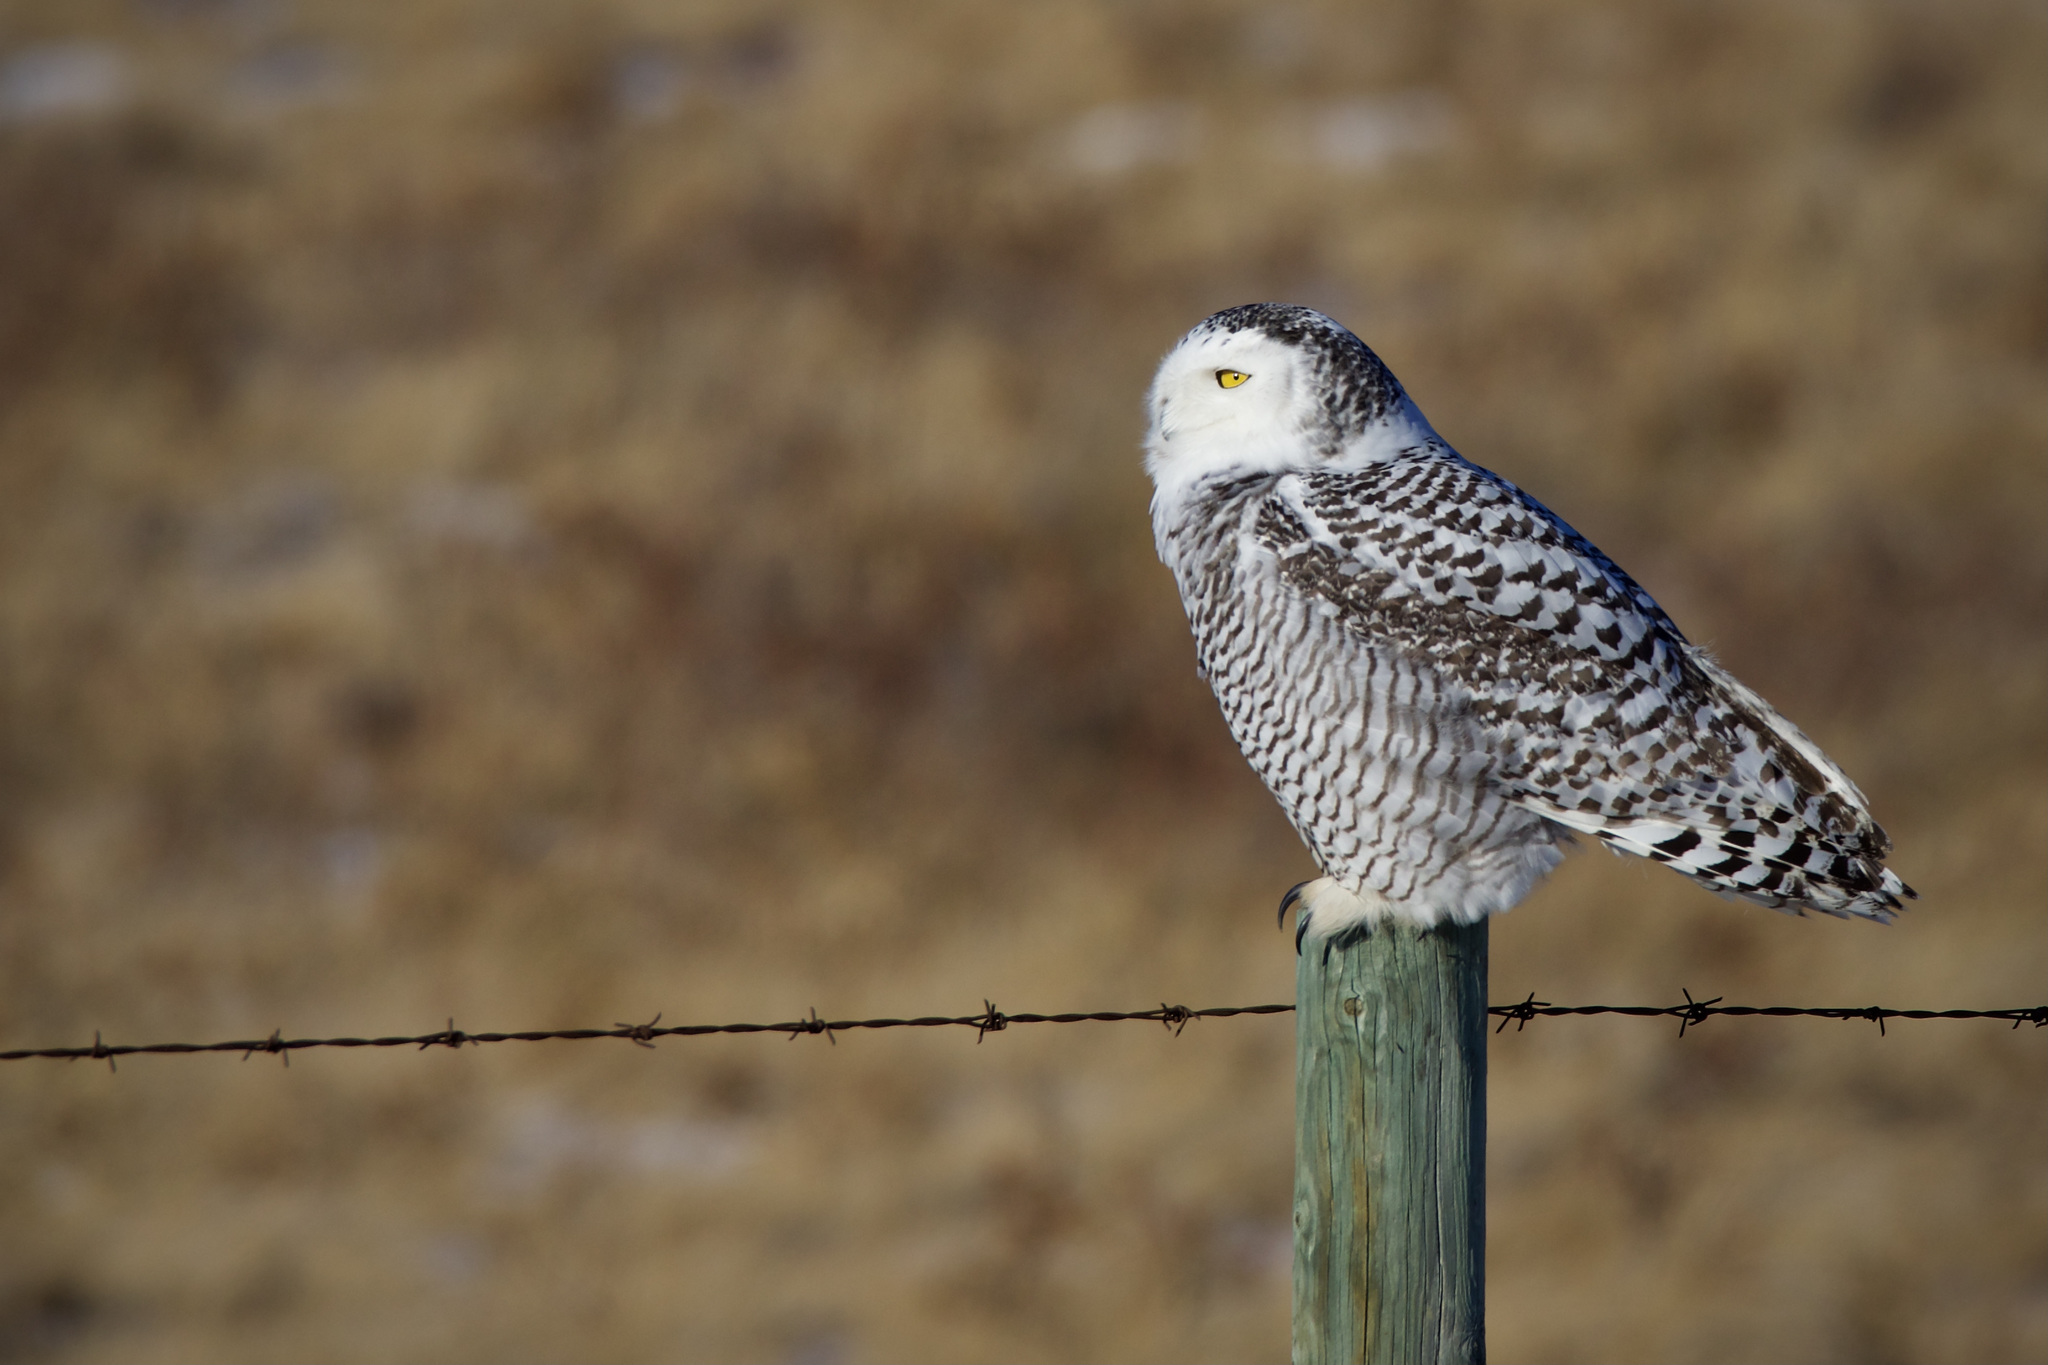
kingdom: Animalia
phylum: Chordata
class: Aves
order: Strigiformes
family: Strigidae
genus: Bubo
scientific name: Bubo scandiacus
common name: Snowy owl
